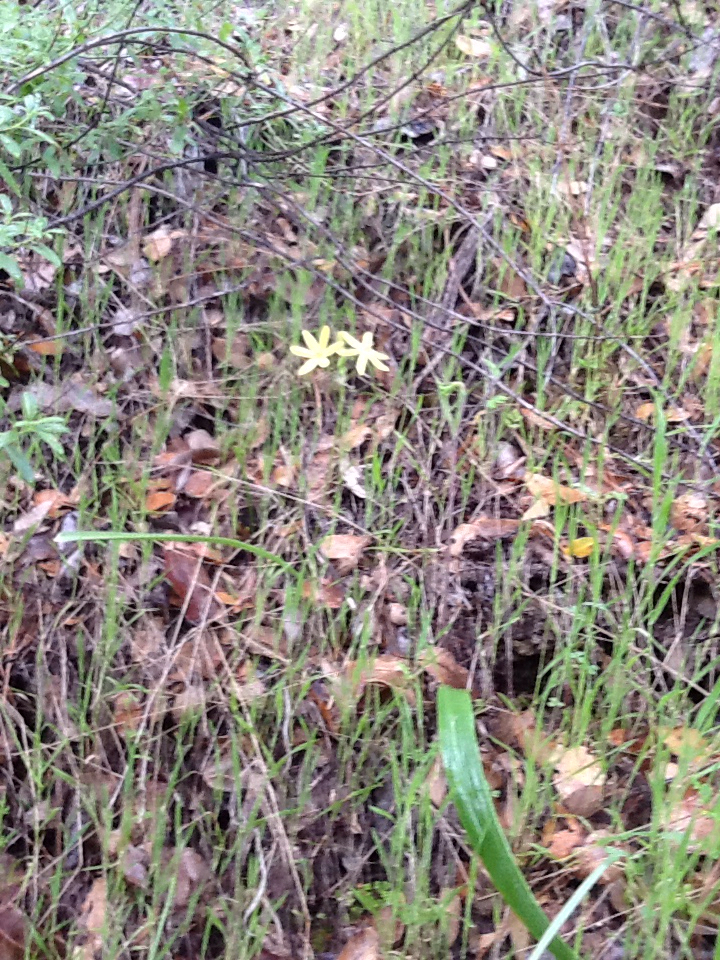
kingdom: Plantae
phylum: Tracheophyta
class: Liliopsida
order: Asparagales
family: Asparagaceae
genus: Triteleia
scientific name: Triteleia ixioides
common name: Yellow-brodiaea
